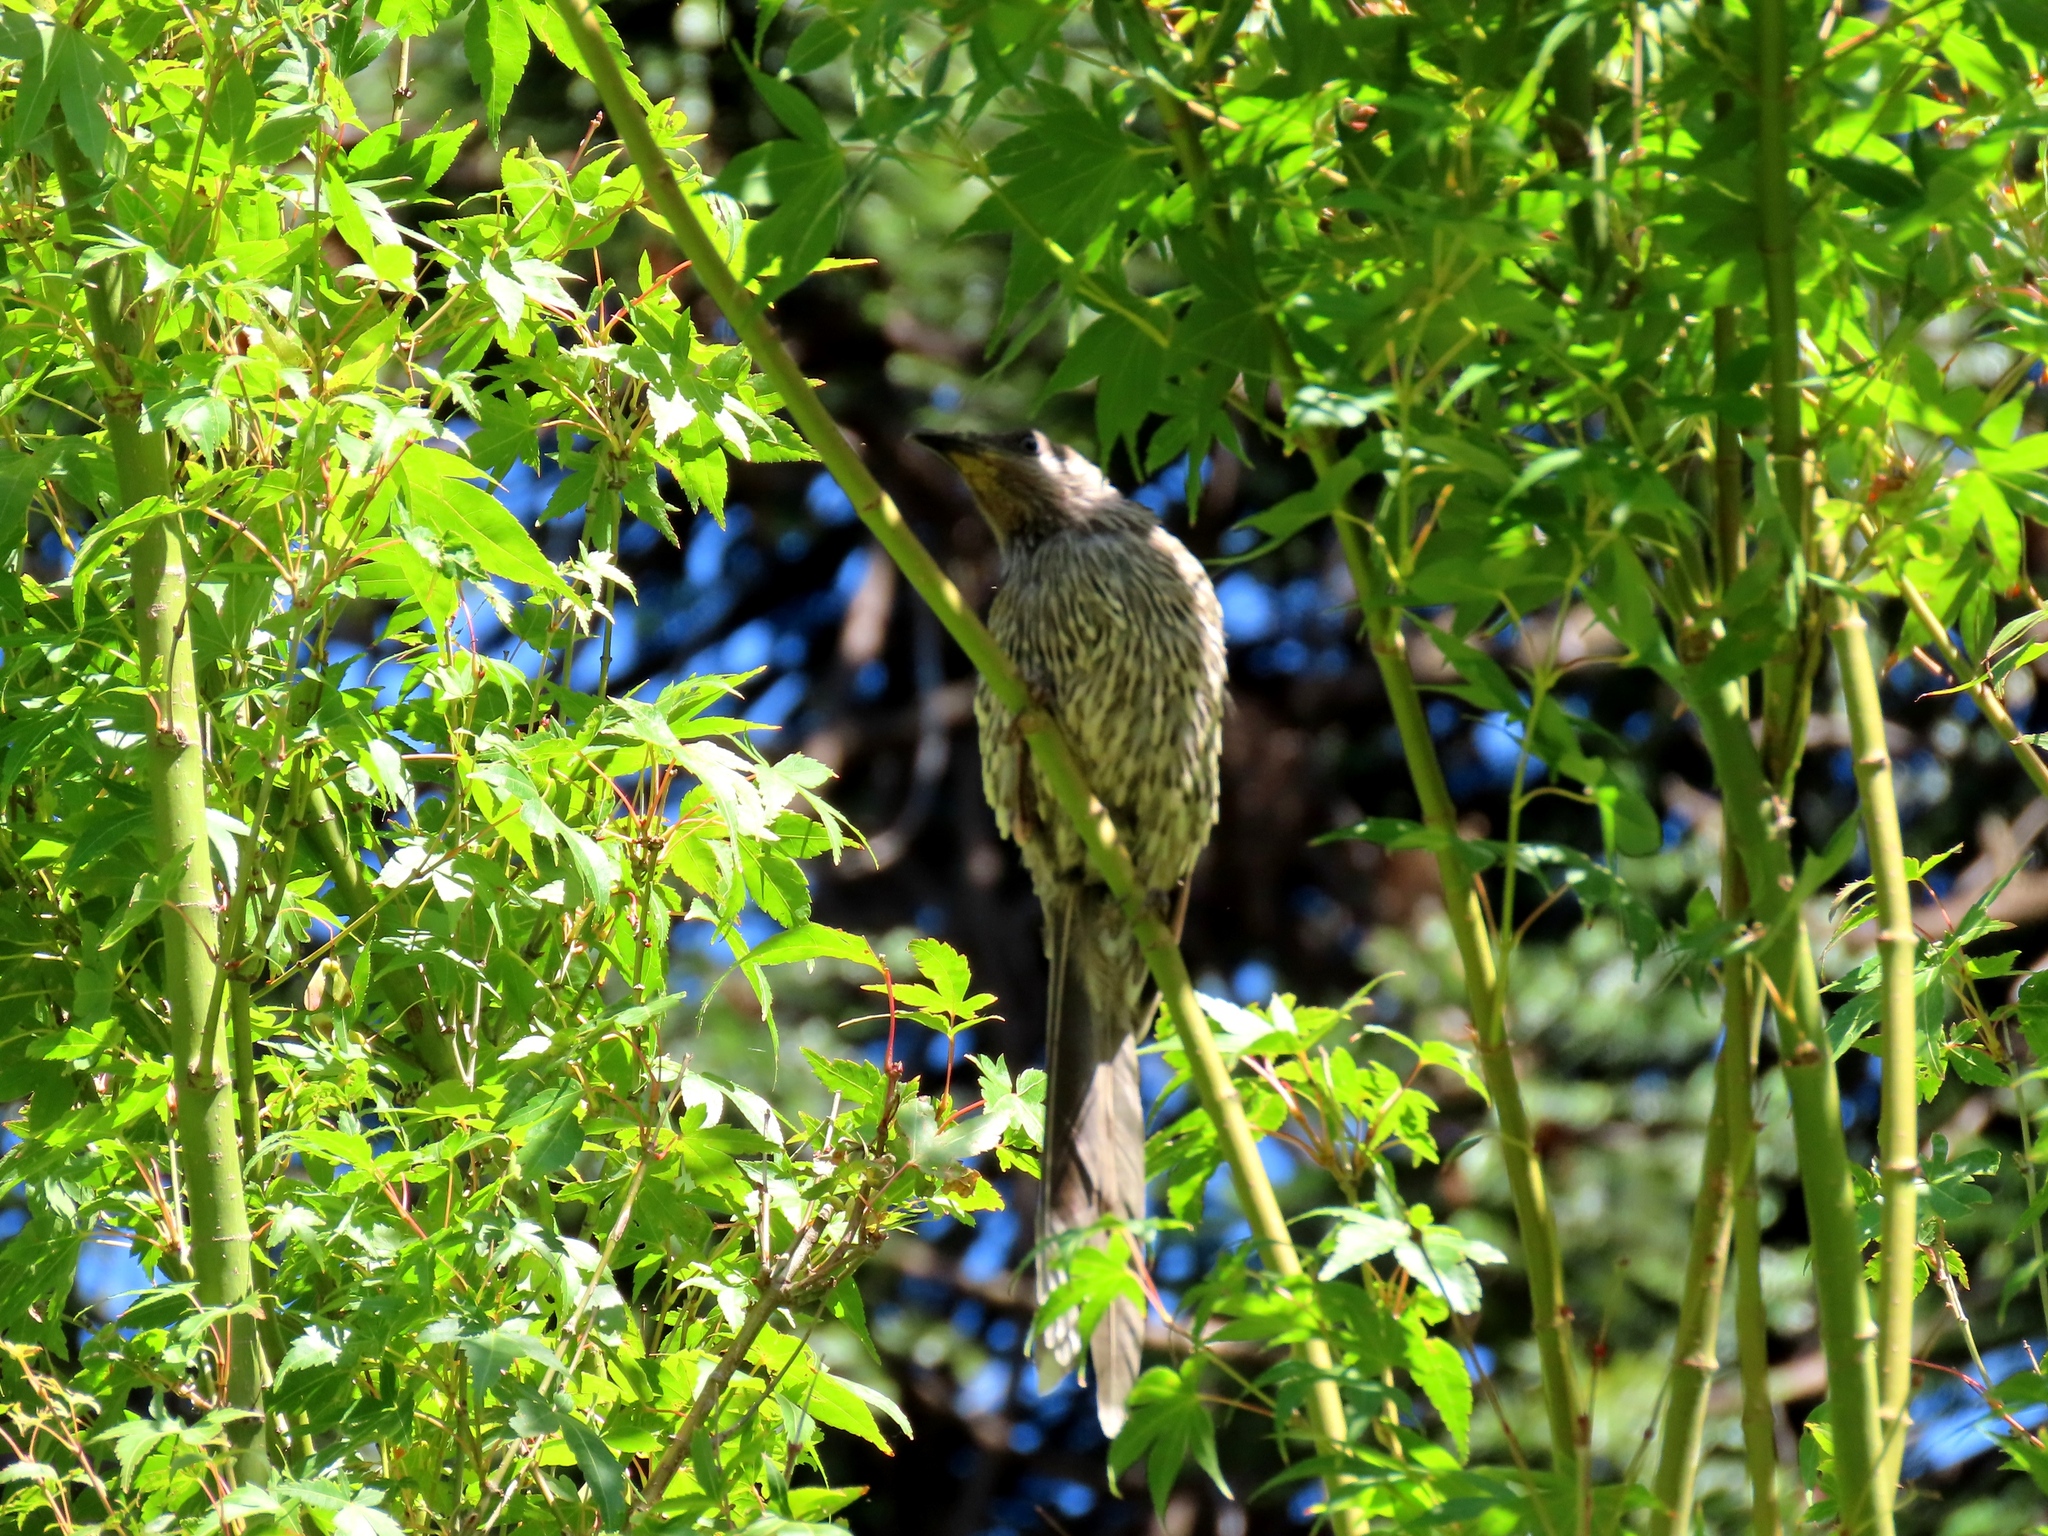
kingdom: Animalia
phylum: Chordata
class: Aves
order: Passeriformes
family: Meliphagidae
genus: Anthochaera
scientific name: Anthochaera chrysoptera
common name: Little wattlebird
